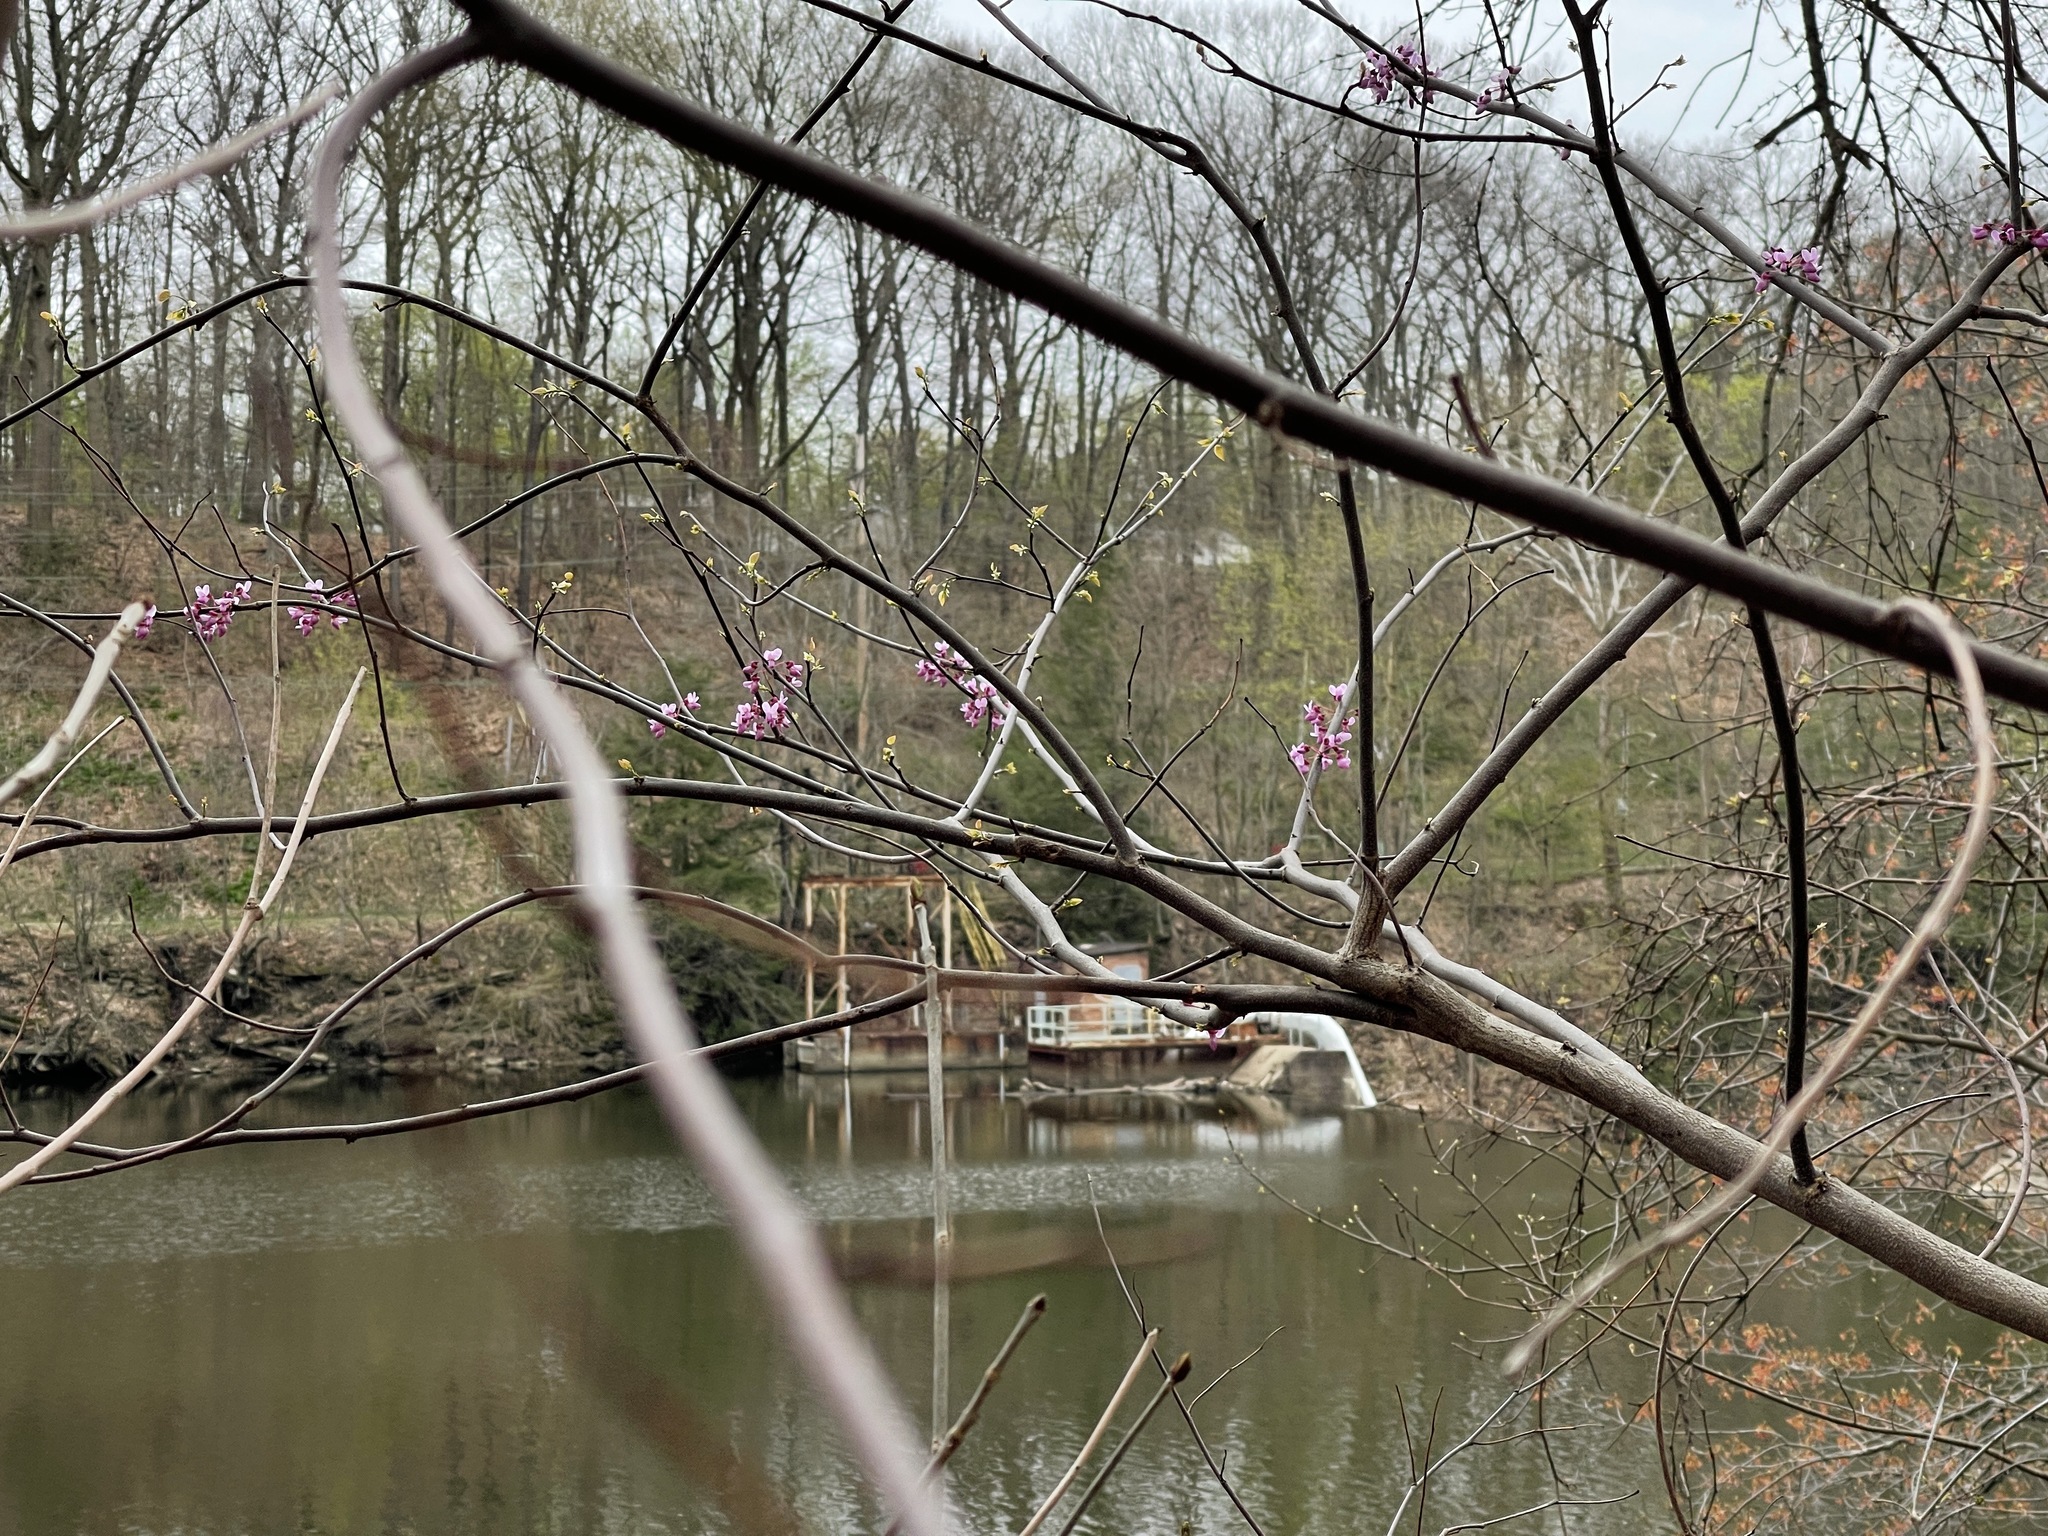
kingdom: Plantae
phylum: Tracheophyta
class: Magnoliopsida
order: Fabales
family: Fabaceae
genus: Cercis
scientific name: Cercis canadensis
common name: Eastern redbud
